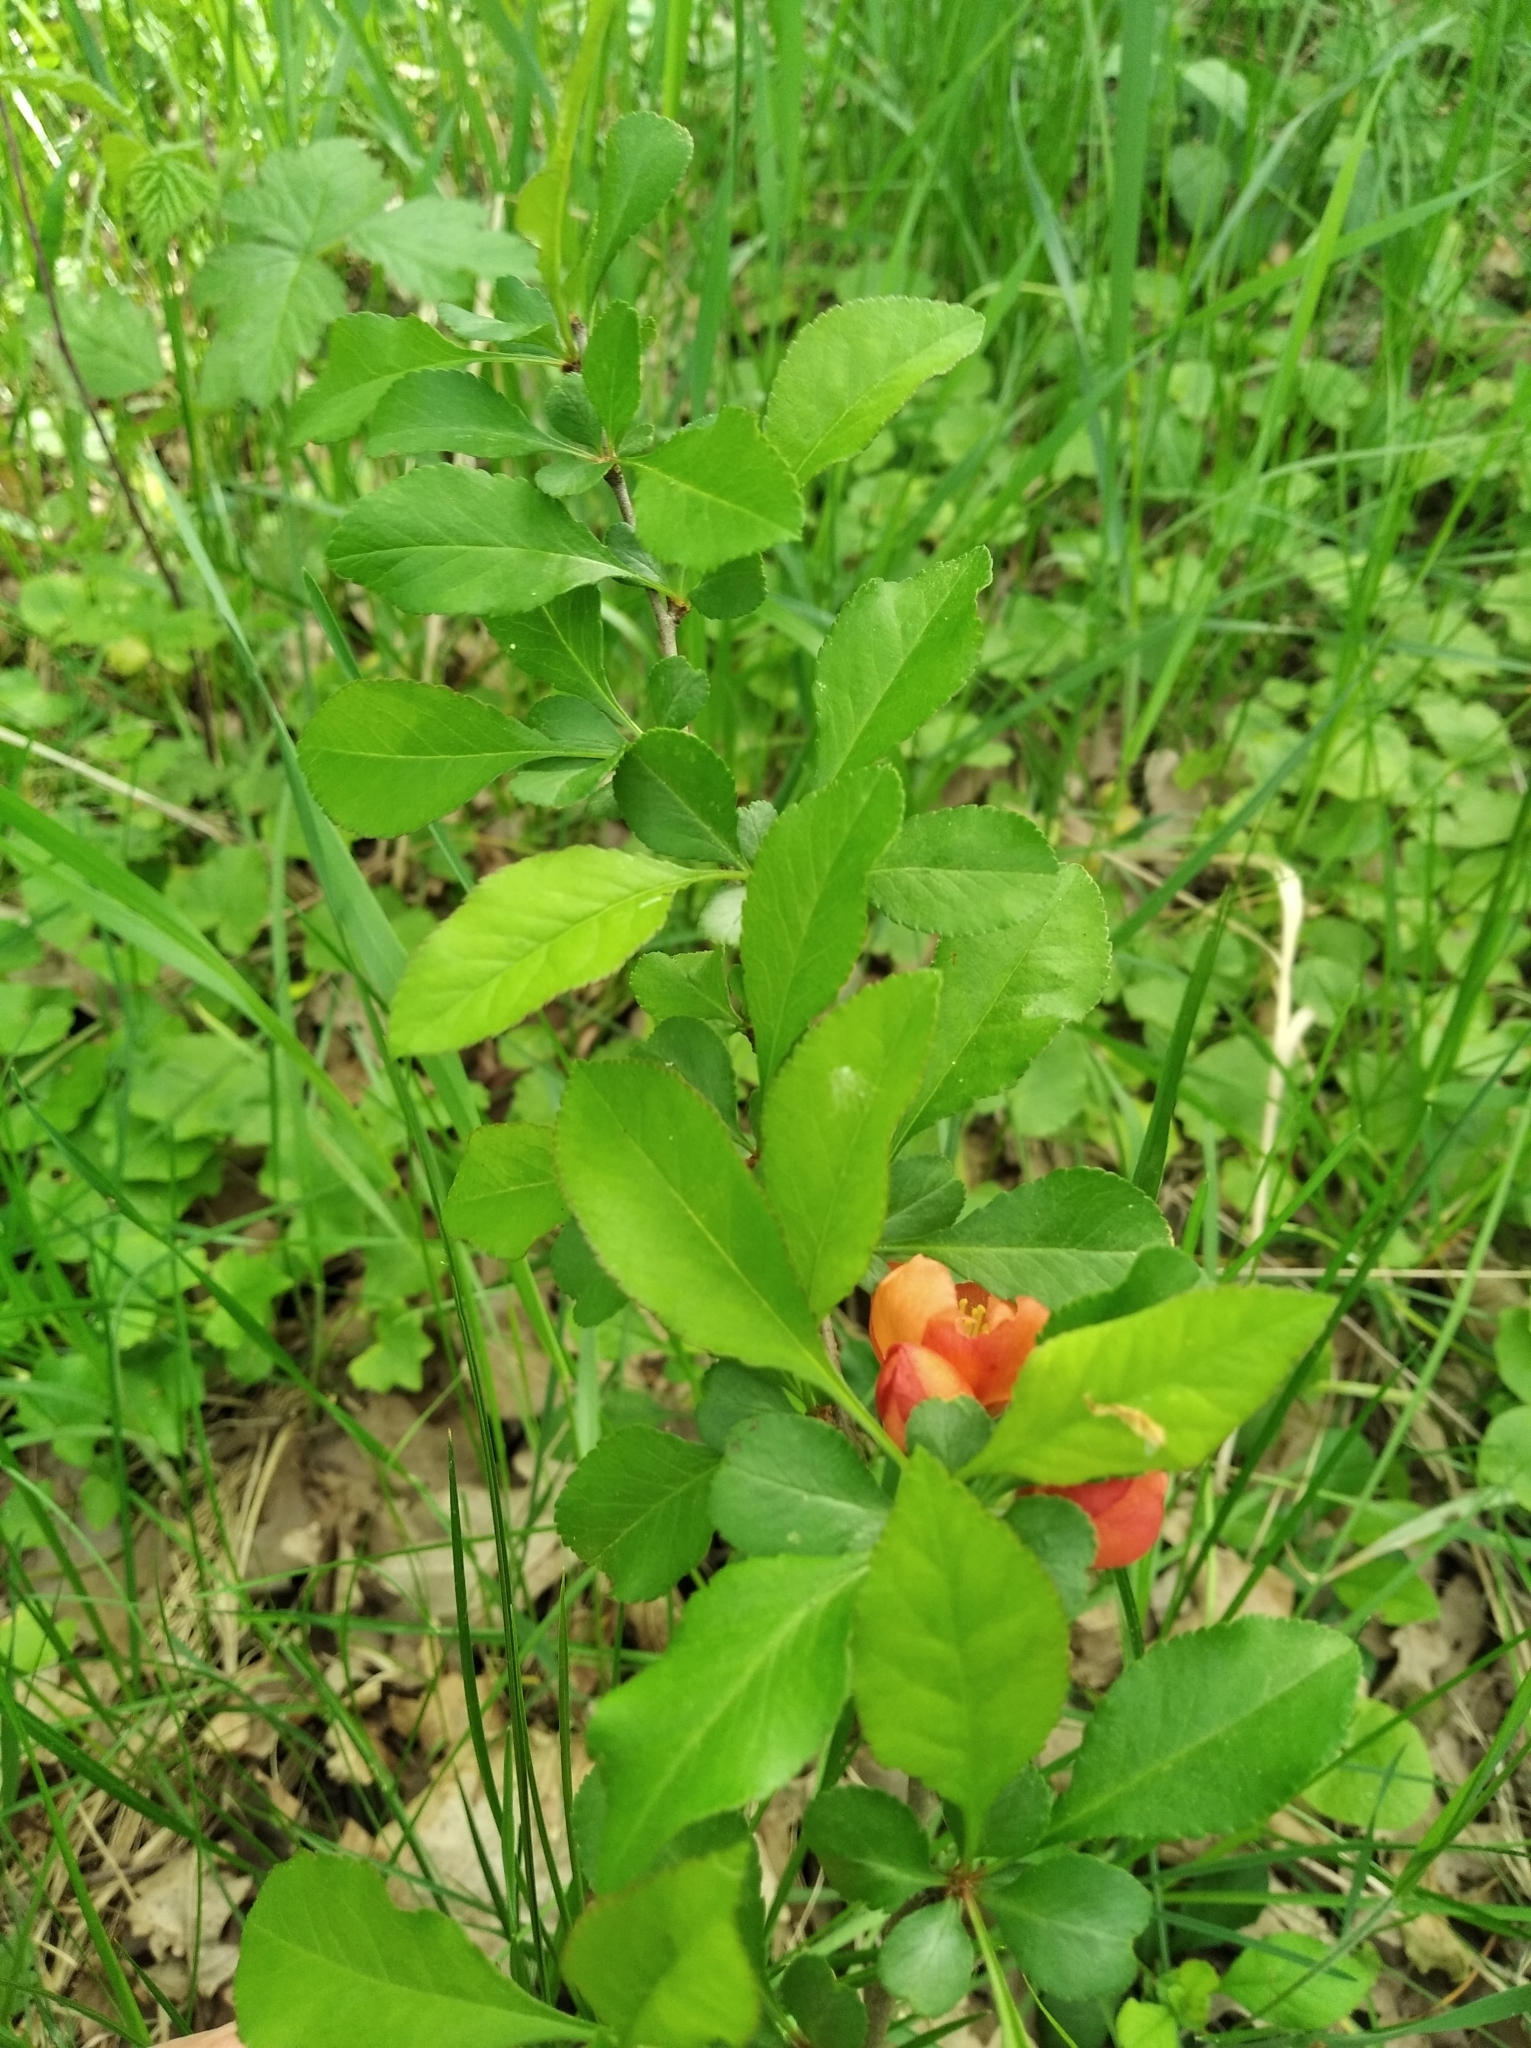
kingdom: Plantae
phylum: Tracheophyta
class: Magnoliopsida
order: Rosales
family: Rosaceae
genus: Chaenomeles
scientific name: Chaenomeles japonica
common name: Japanese quince
